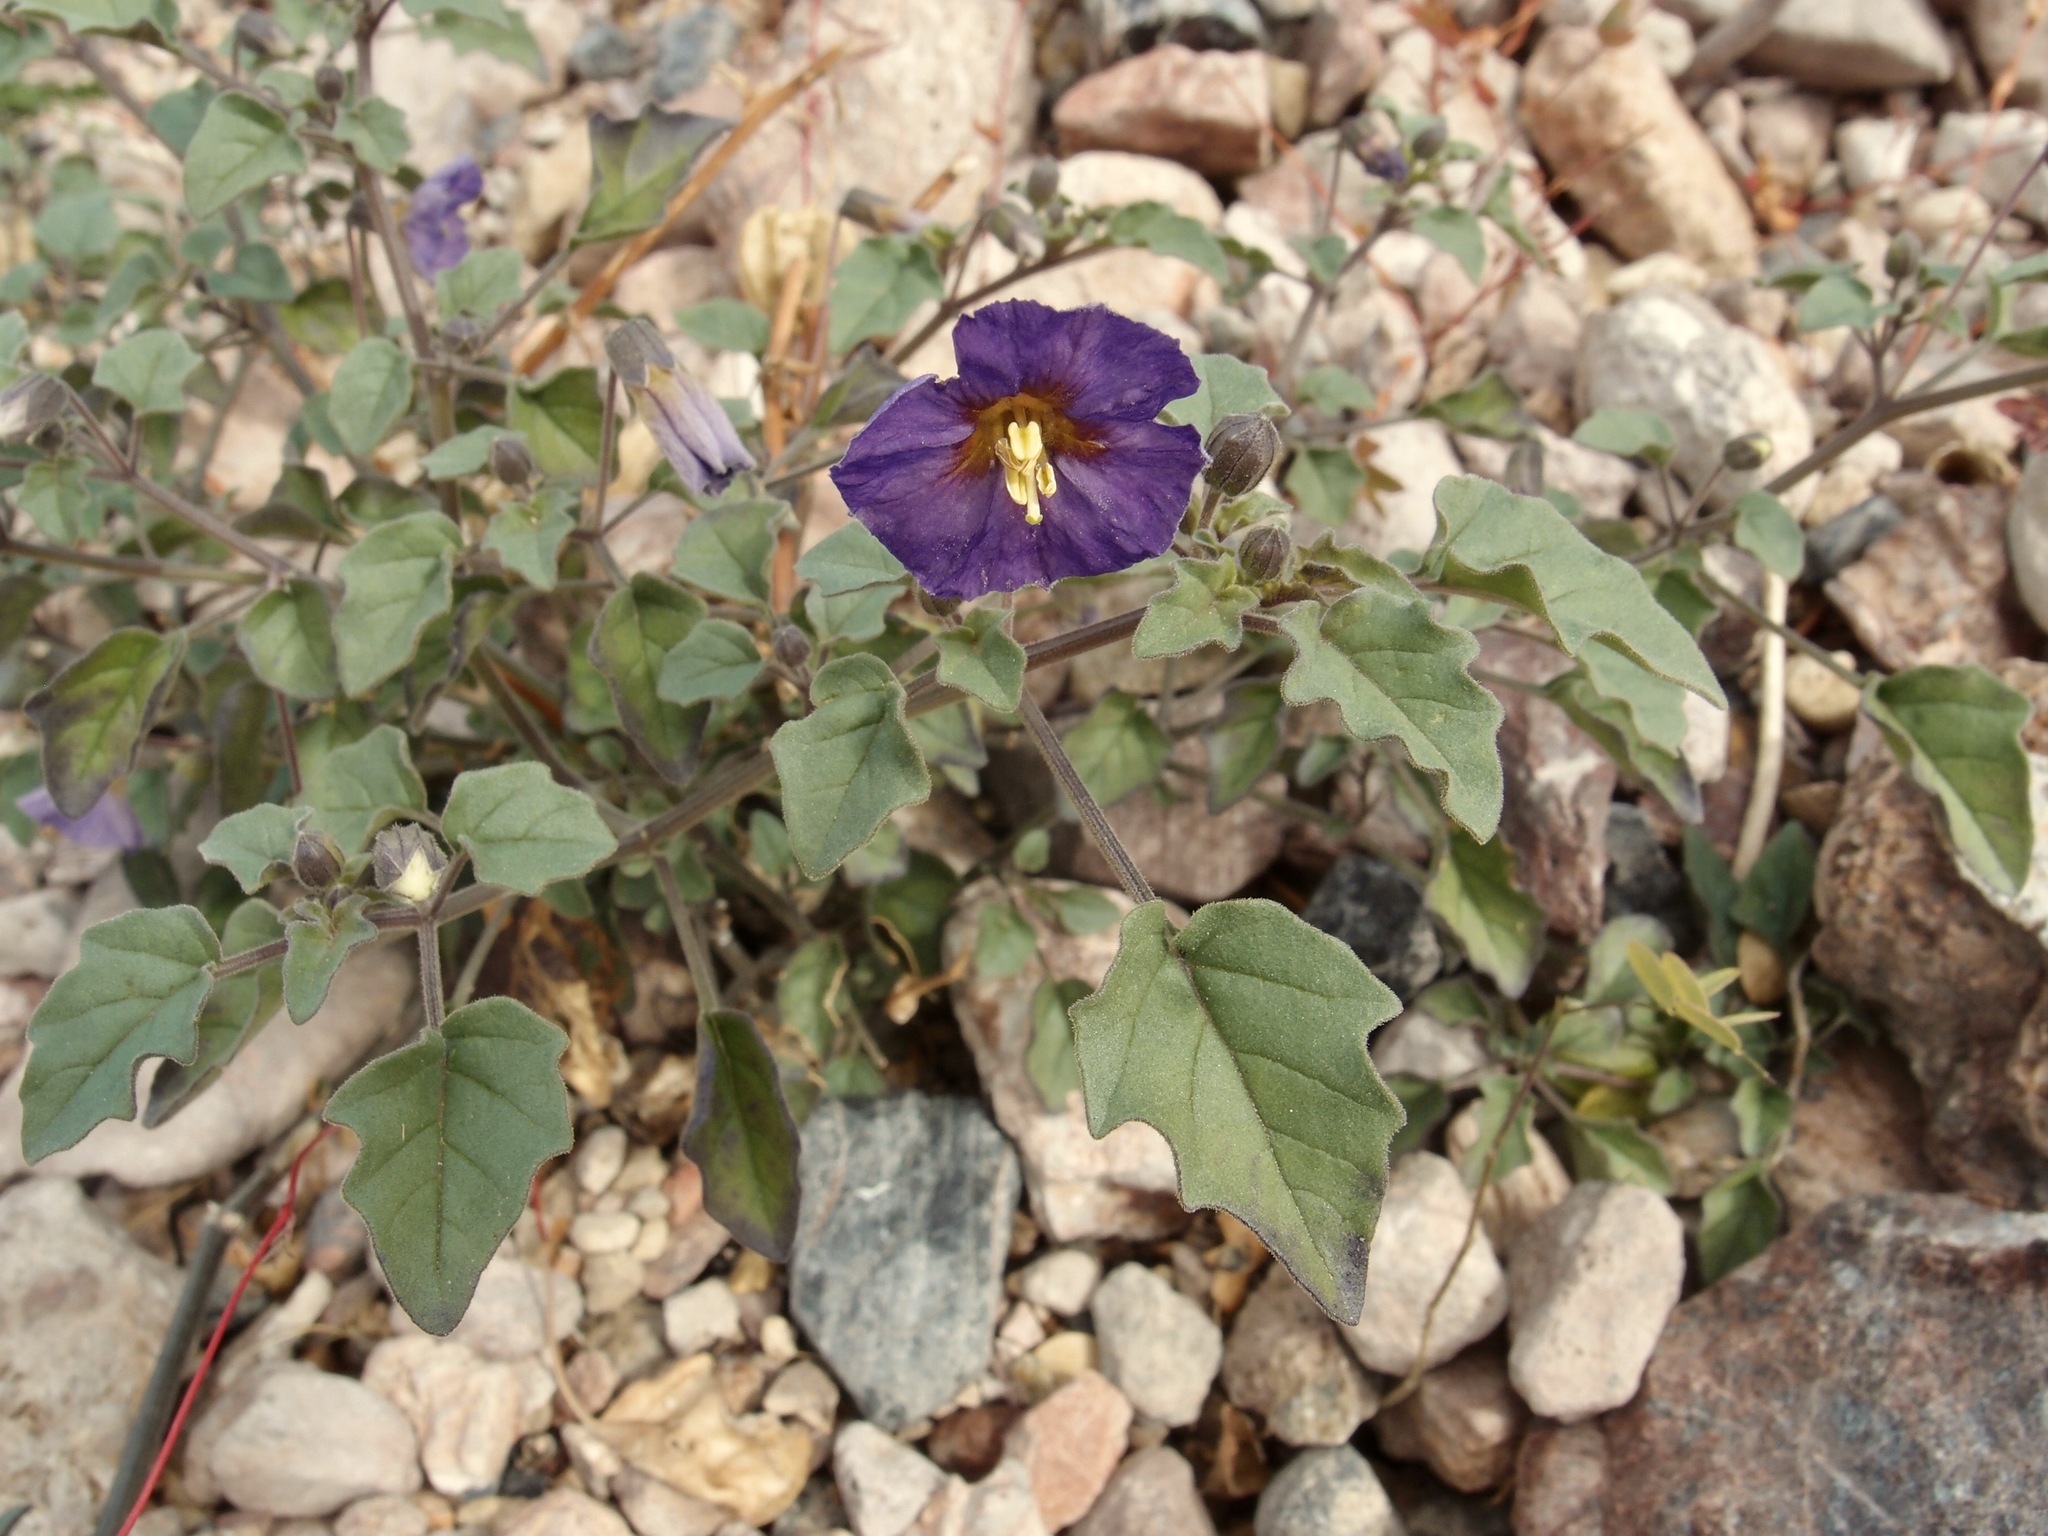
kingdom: Plantae
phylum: Tracheophyta
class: Magnoliopsida
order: Solanales
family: Solanaceae
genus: Physalis
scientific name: Physalis purpurea
